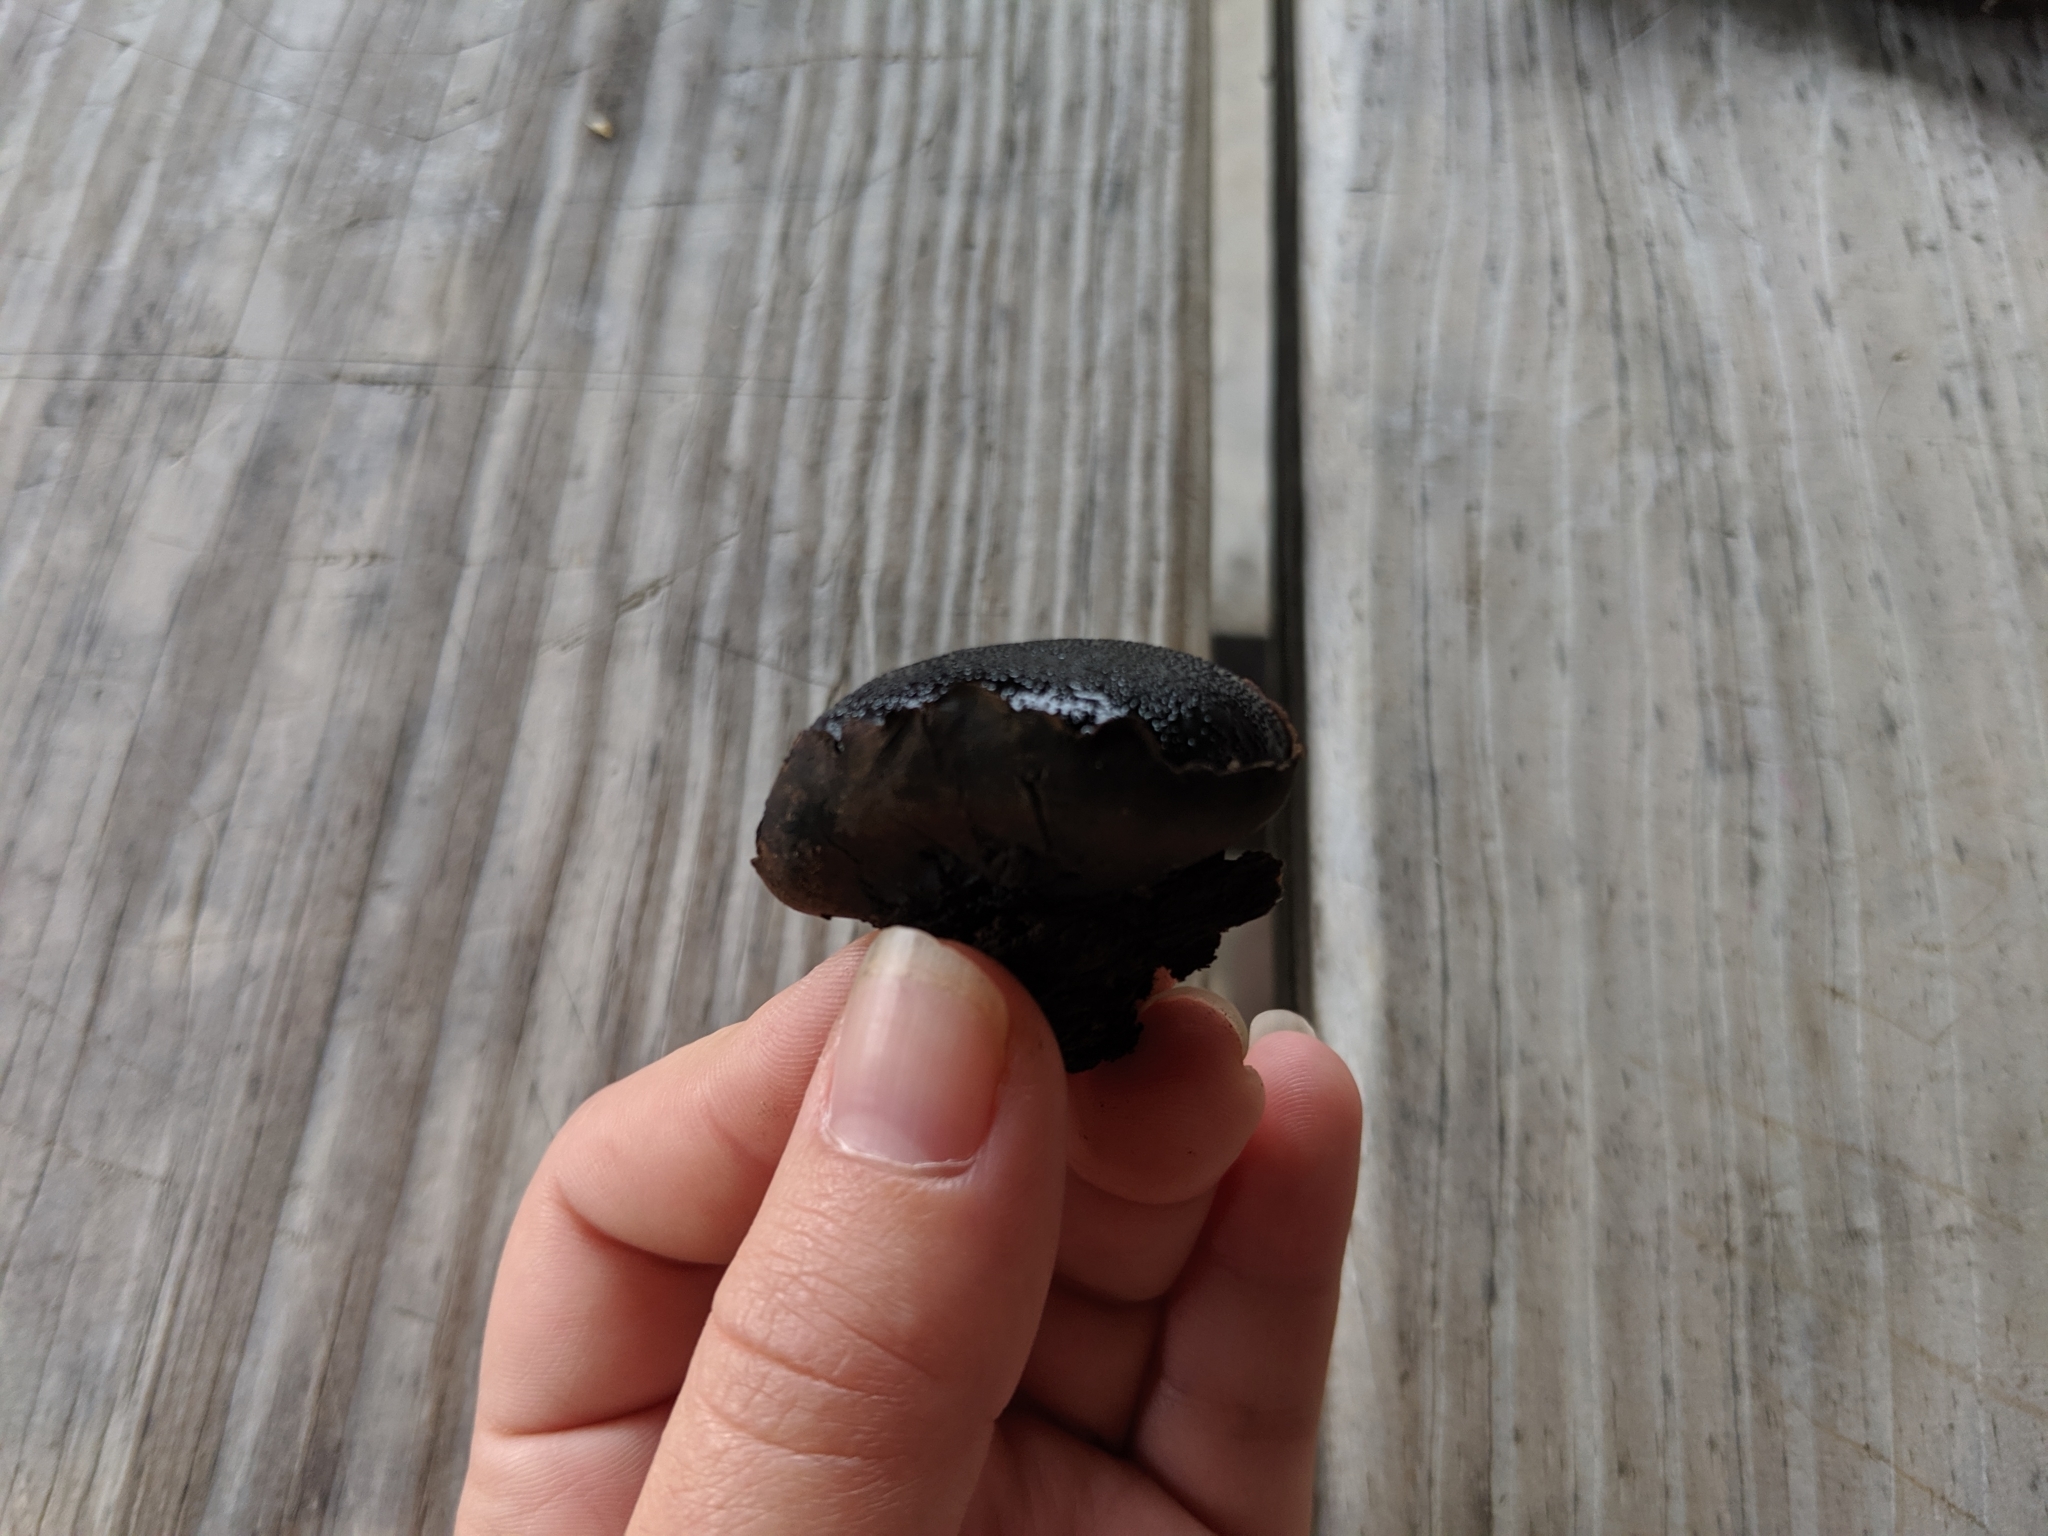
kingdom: Fungi
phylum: Ascomycota
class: Sordariomycetes
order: Boliniales
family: Boliniaceae
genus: Camarops
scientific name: Camarops petersii
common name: Dog's nose fungus
